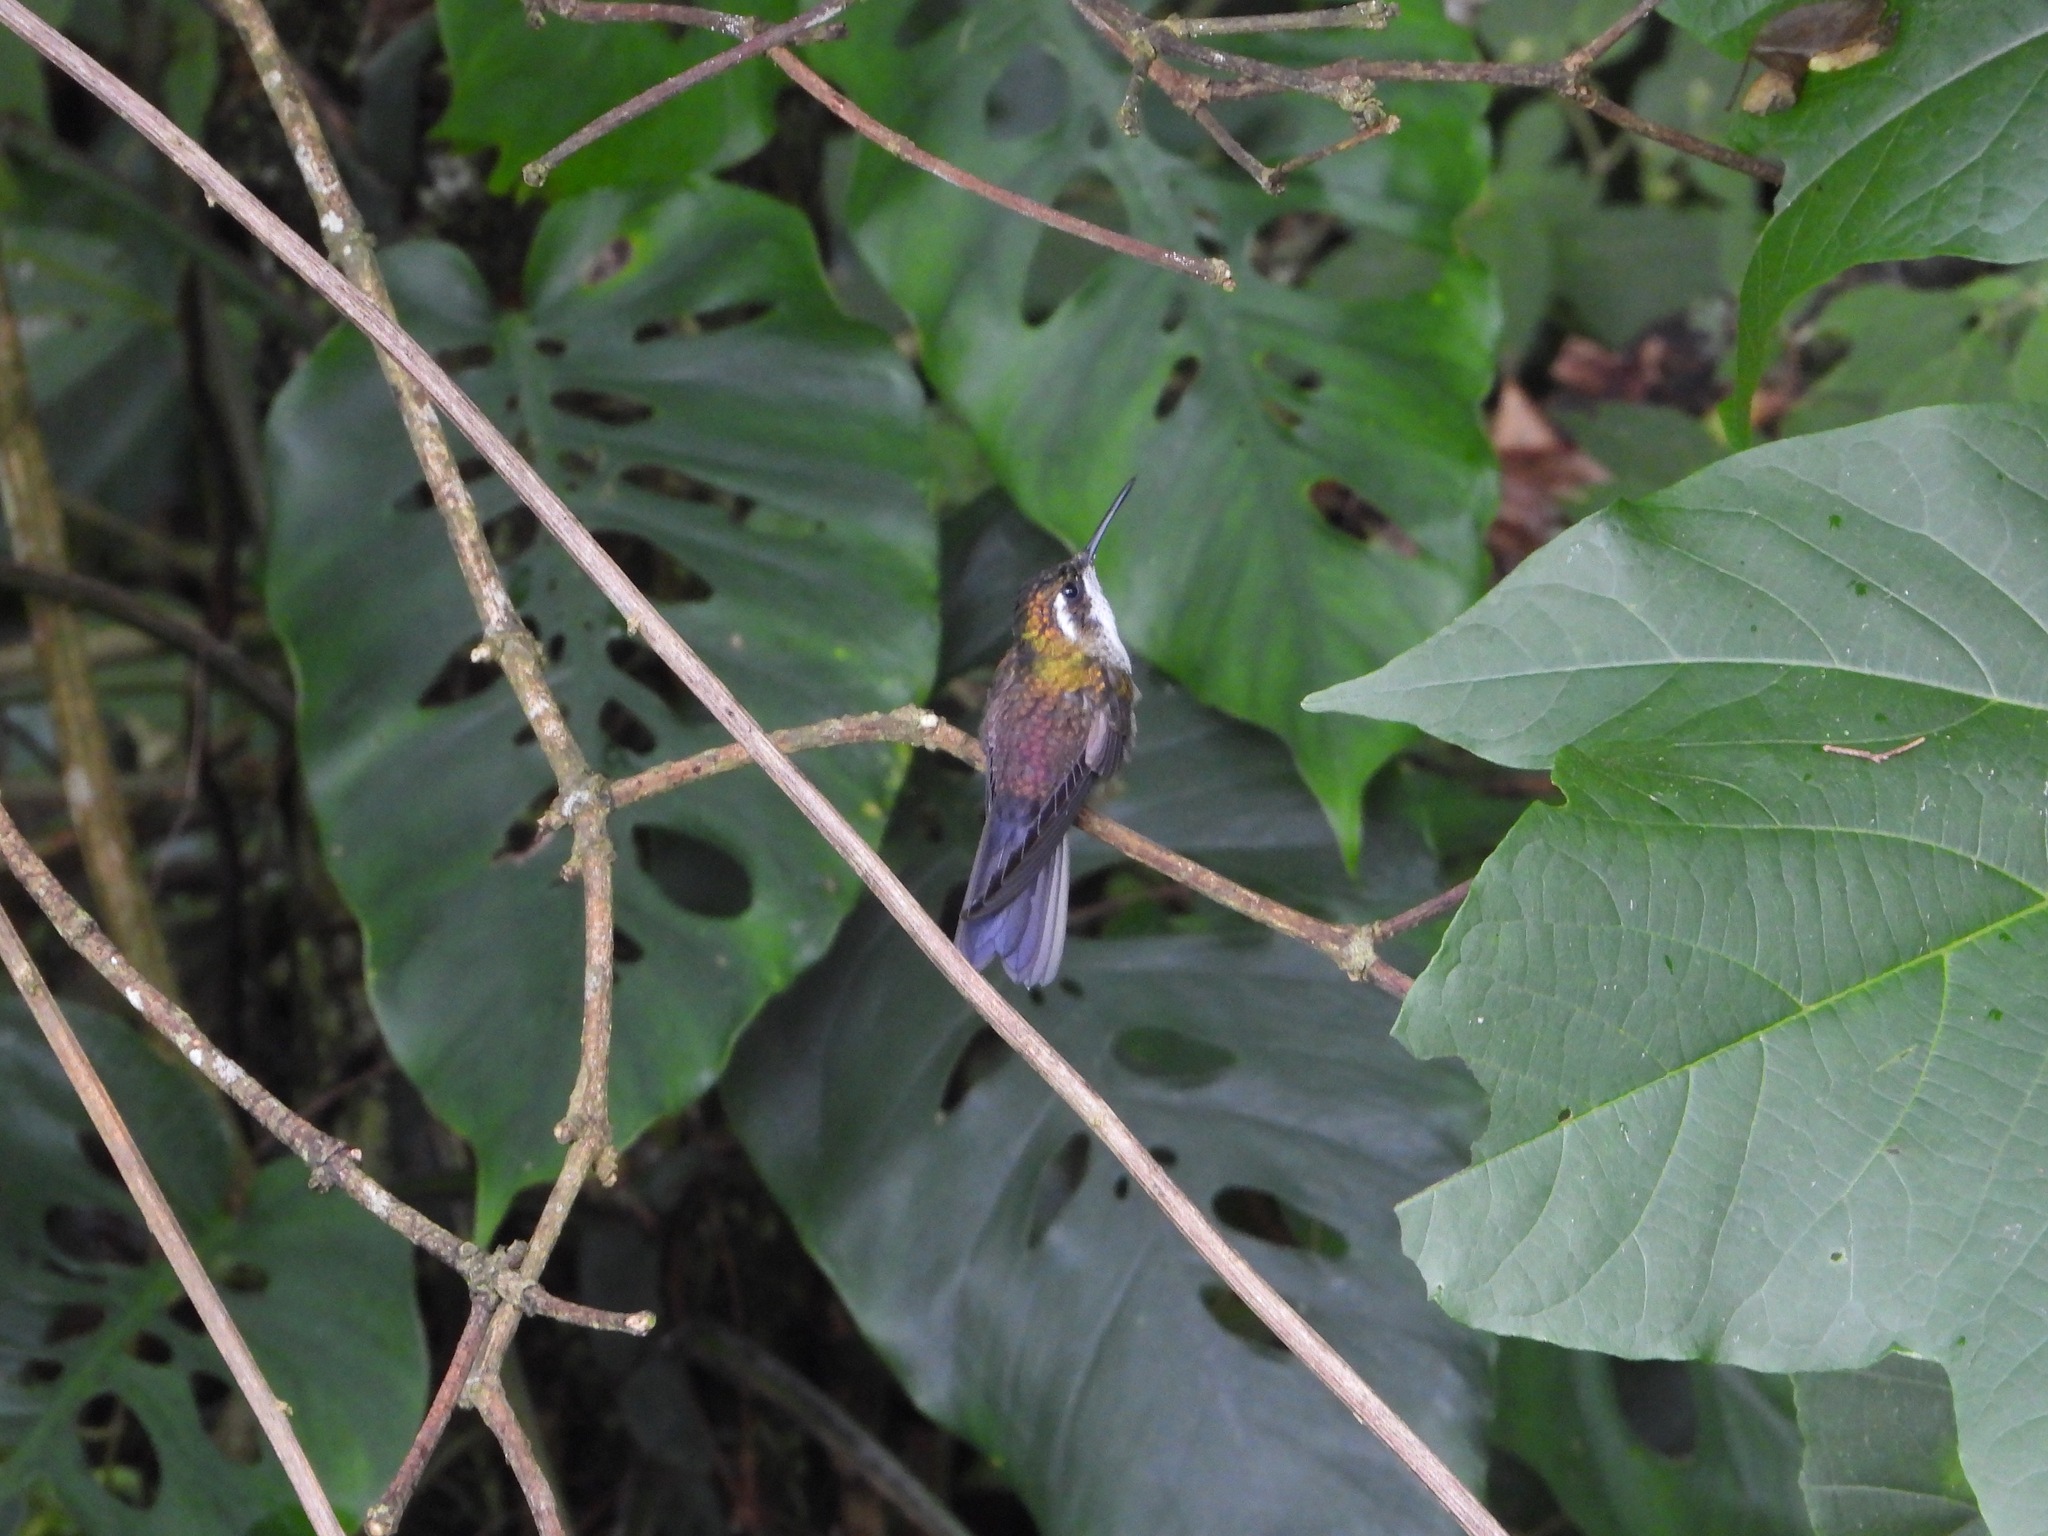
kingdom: Animalia
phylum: Chordata
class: Aves
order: Apodiformes
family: Trochilidae
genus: Lampornis
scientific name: Lampornis viridipallens
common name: Green-throated mountain-gem
